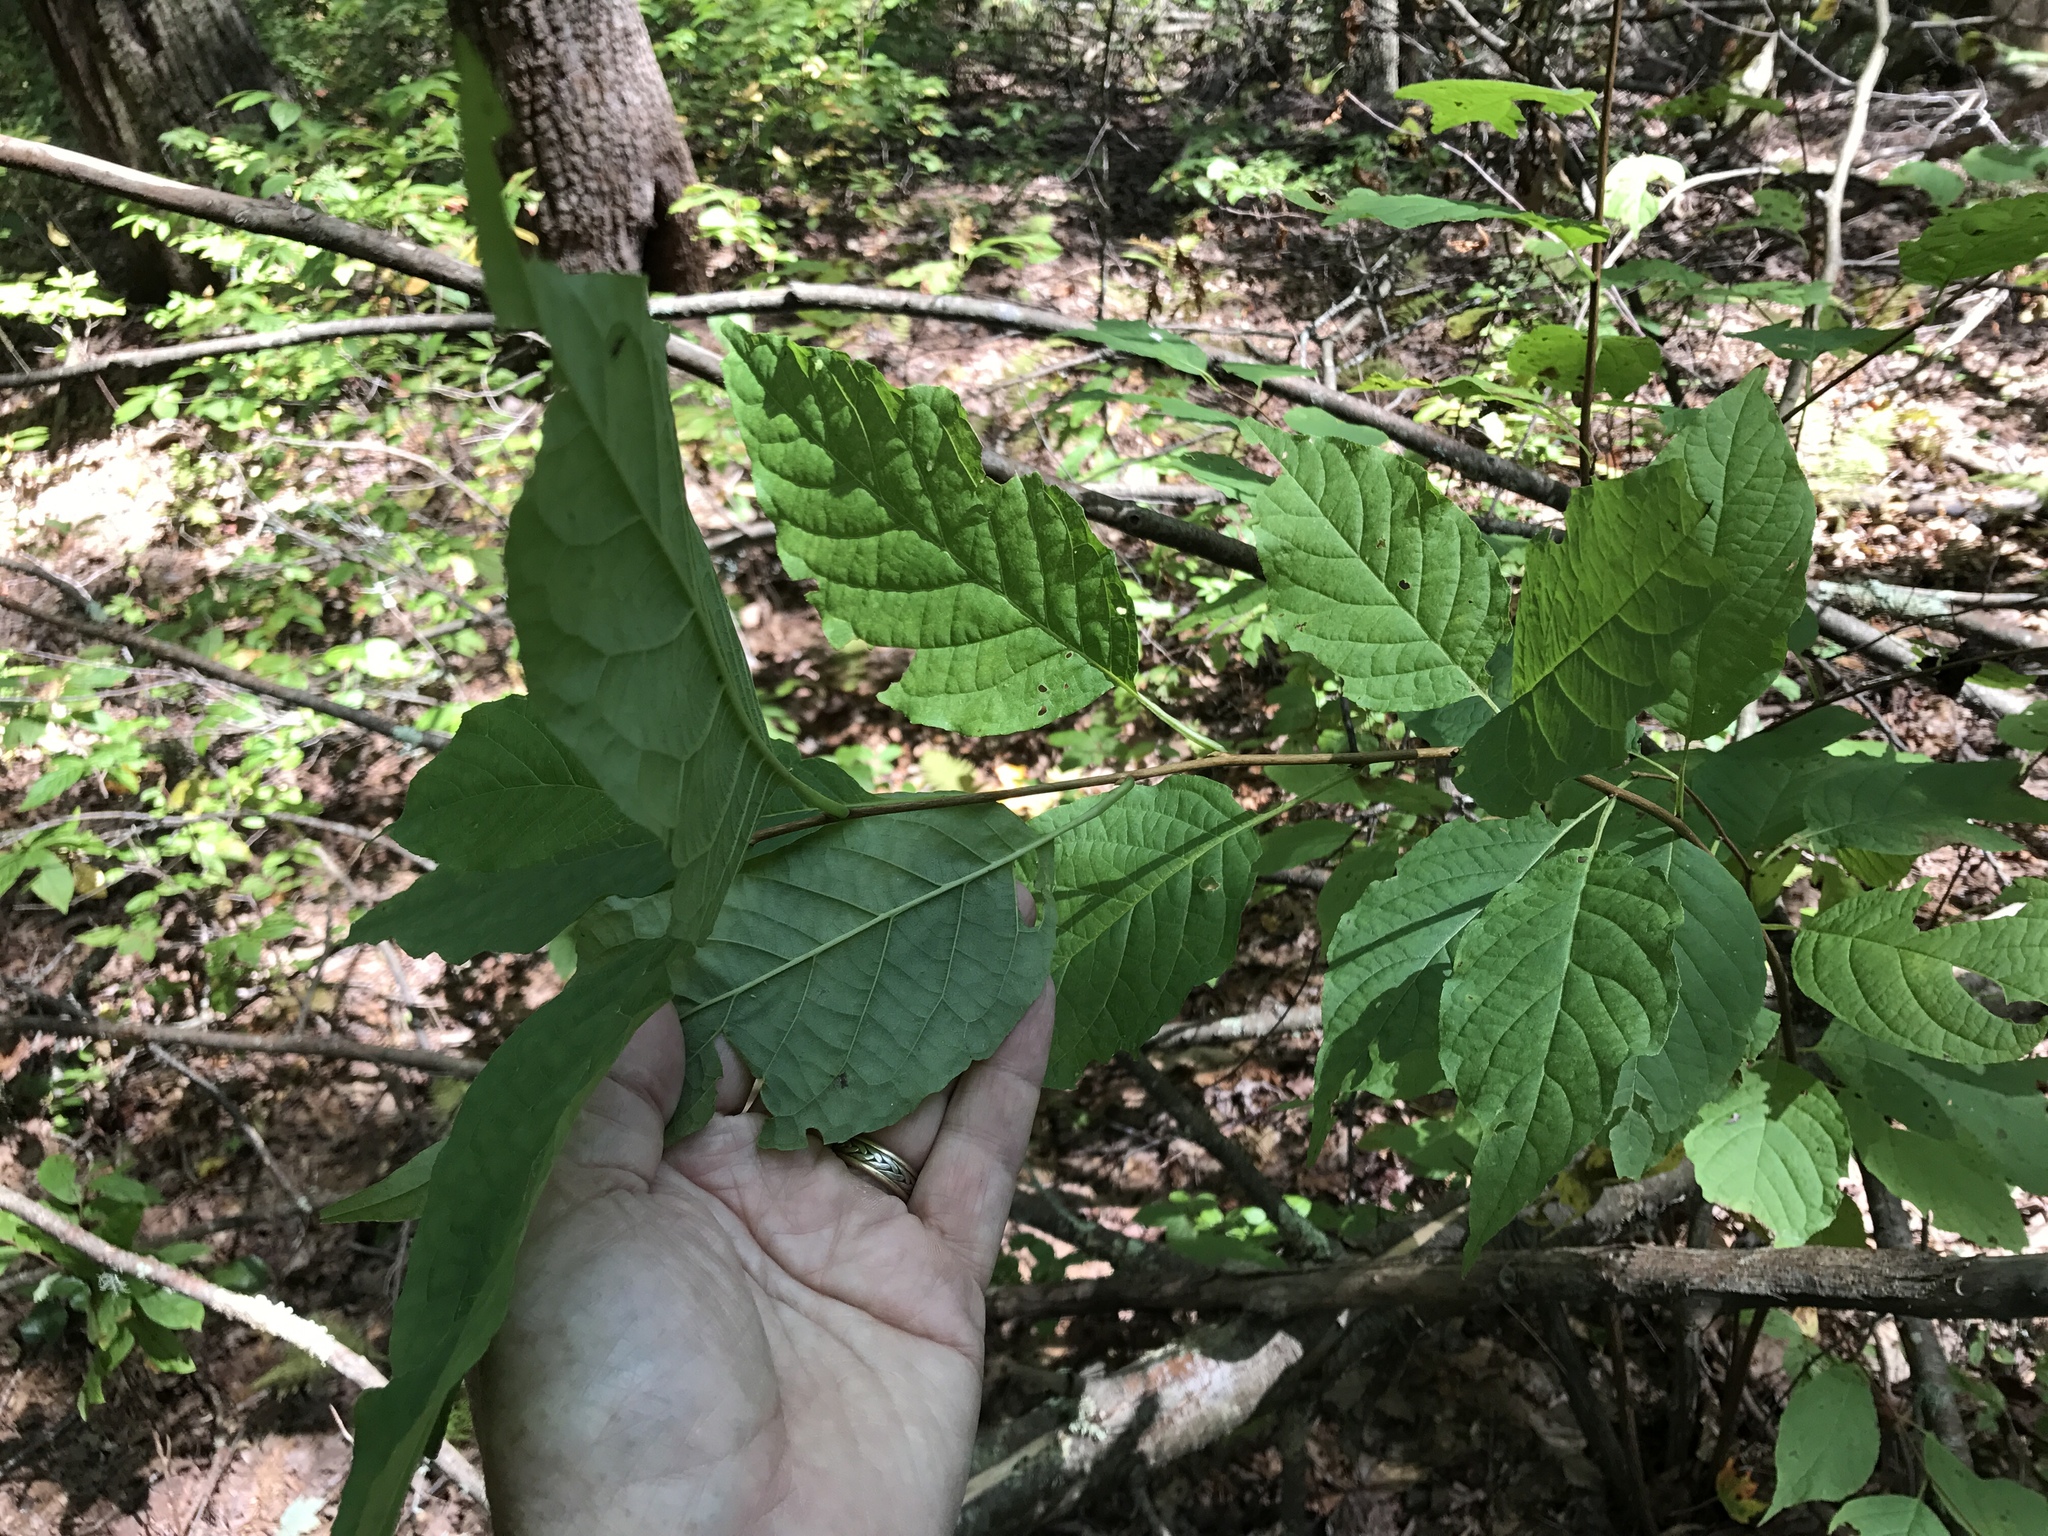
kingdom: Plantae
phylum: Tracheophyta
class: Magnoliopsida
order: Ericales
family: Styracaceae
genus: Halesia
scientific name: Halesia tetraptera
